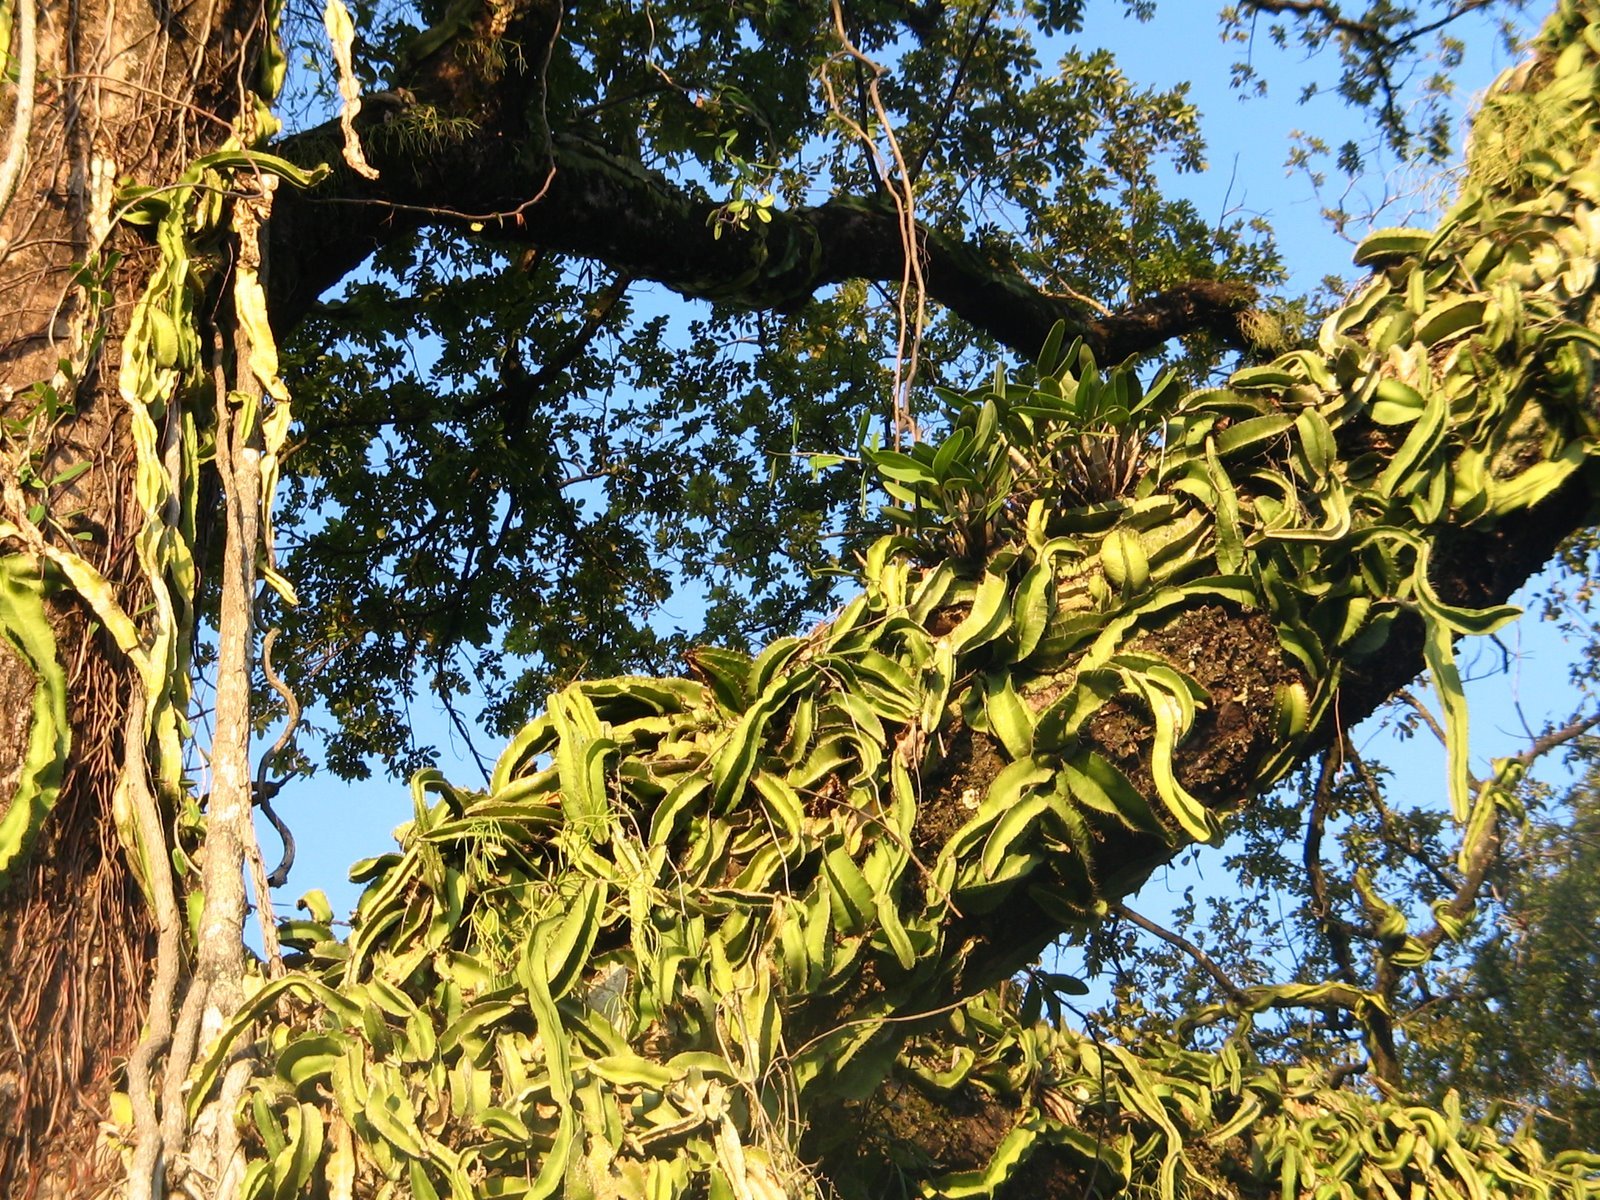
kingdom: Plantae
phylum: Tracheophyta
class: Magnoliopsida
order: Caryophyllales
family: Cactaceae
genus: Deamia
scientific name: Deamia testudo
